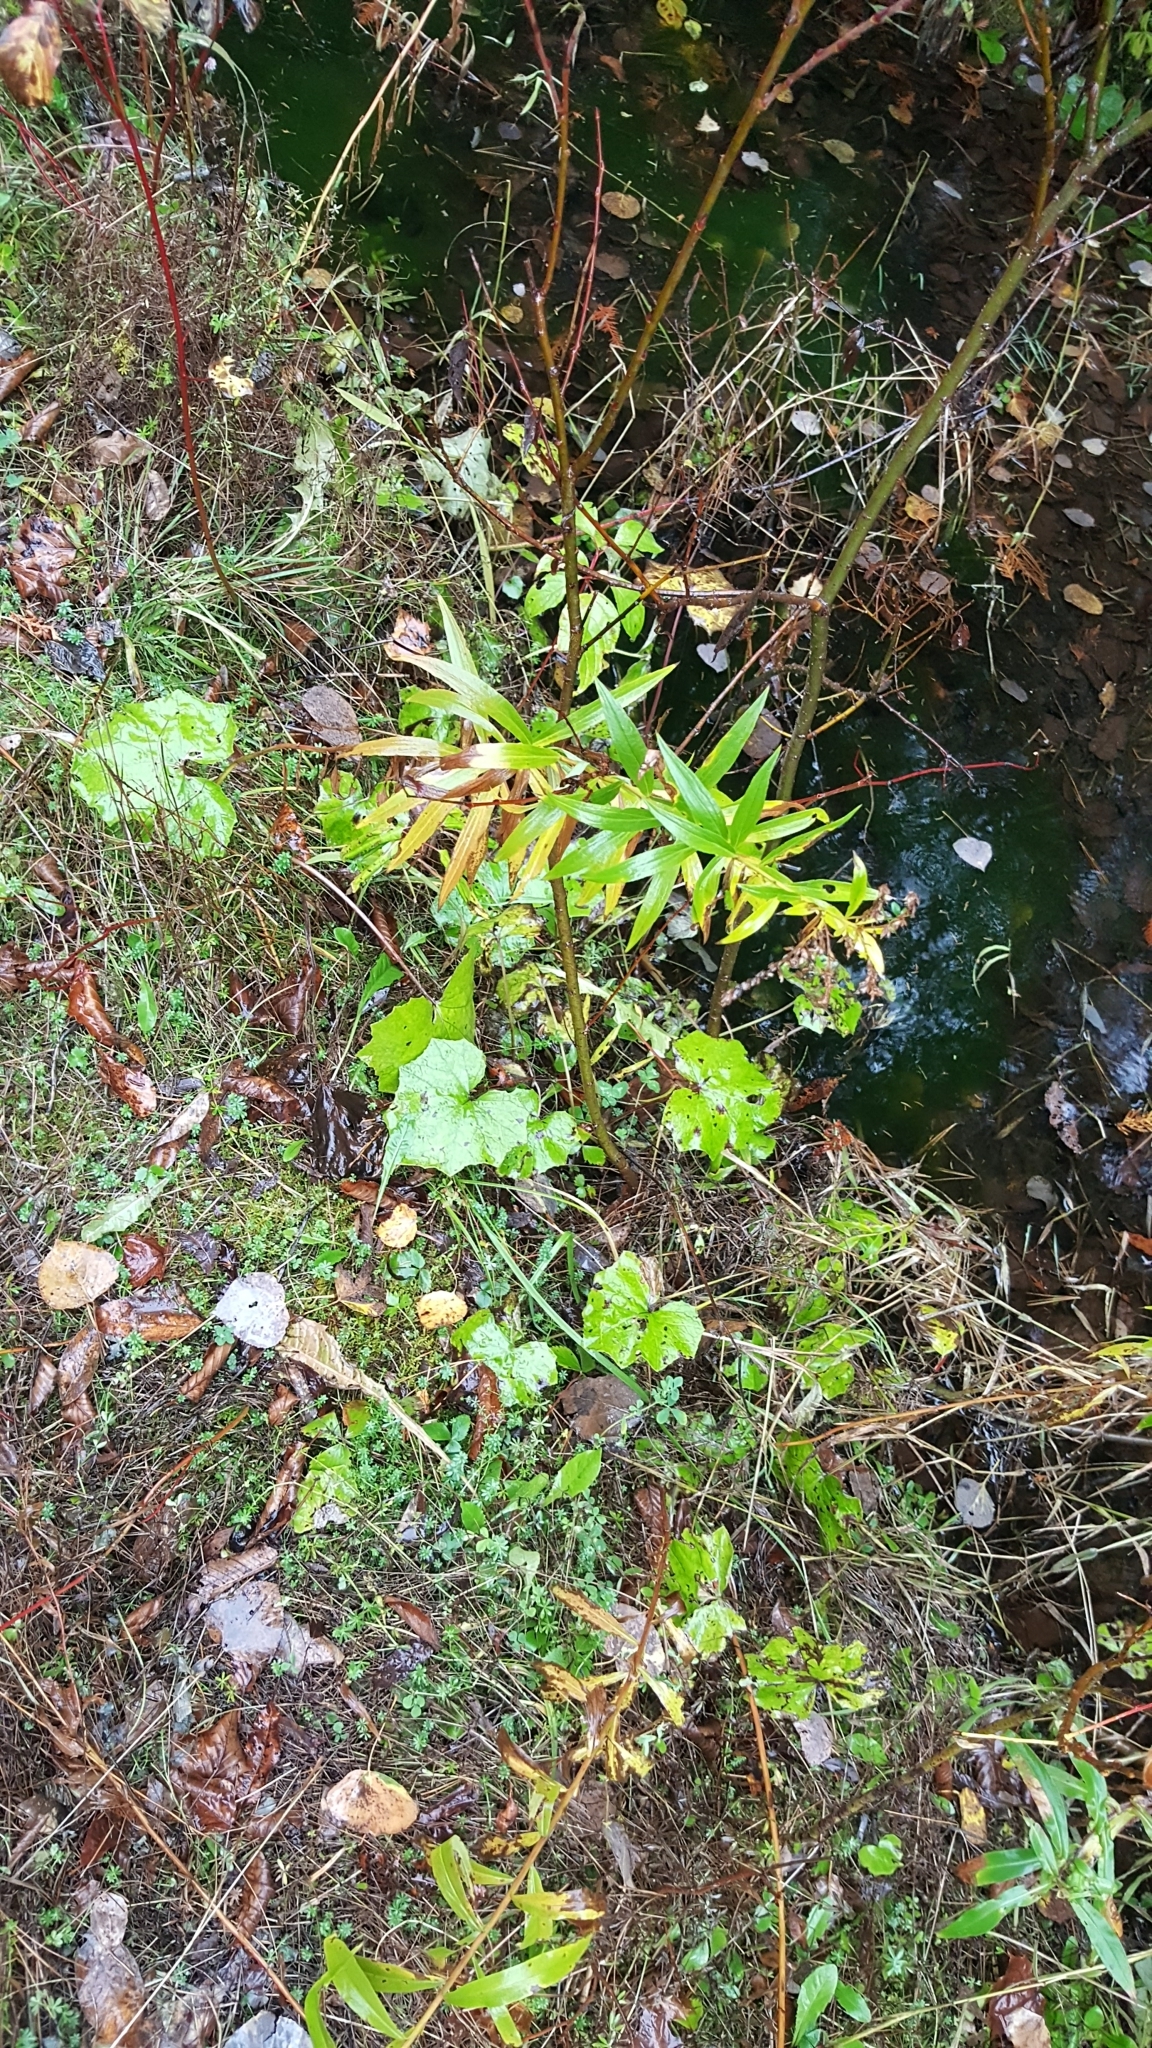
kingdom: Plantae
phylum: Tracheophyta
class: Magnoliopsida
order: Asterales
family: Asteraceae
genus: Tussilago
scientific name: Tussilago farfara
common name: Coltsfoot
